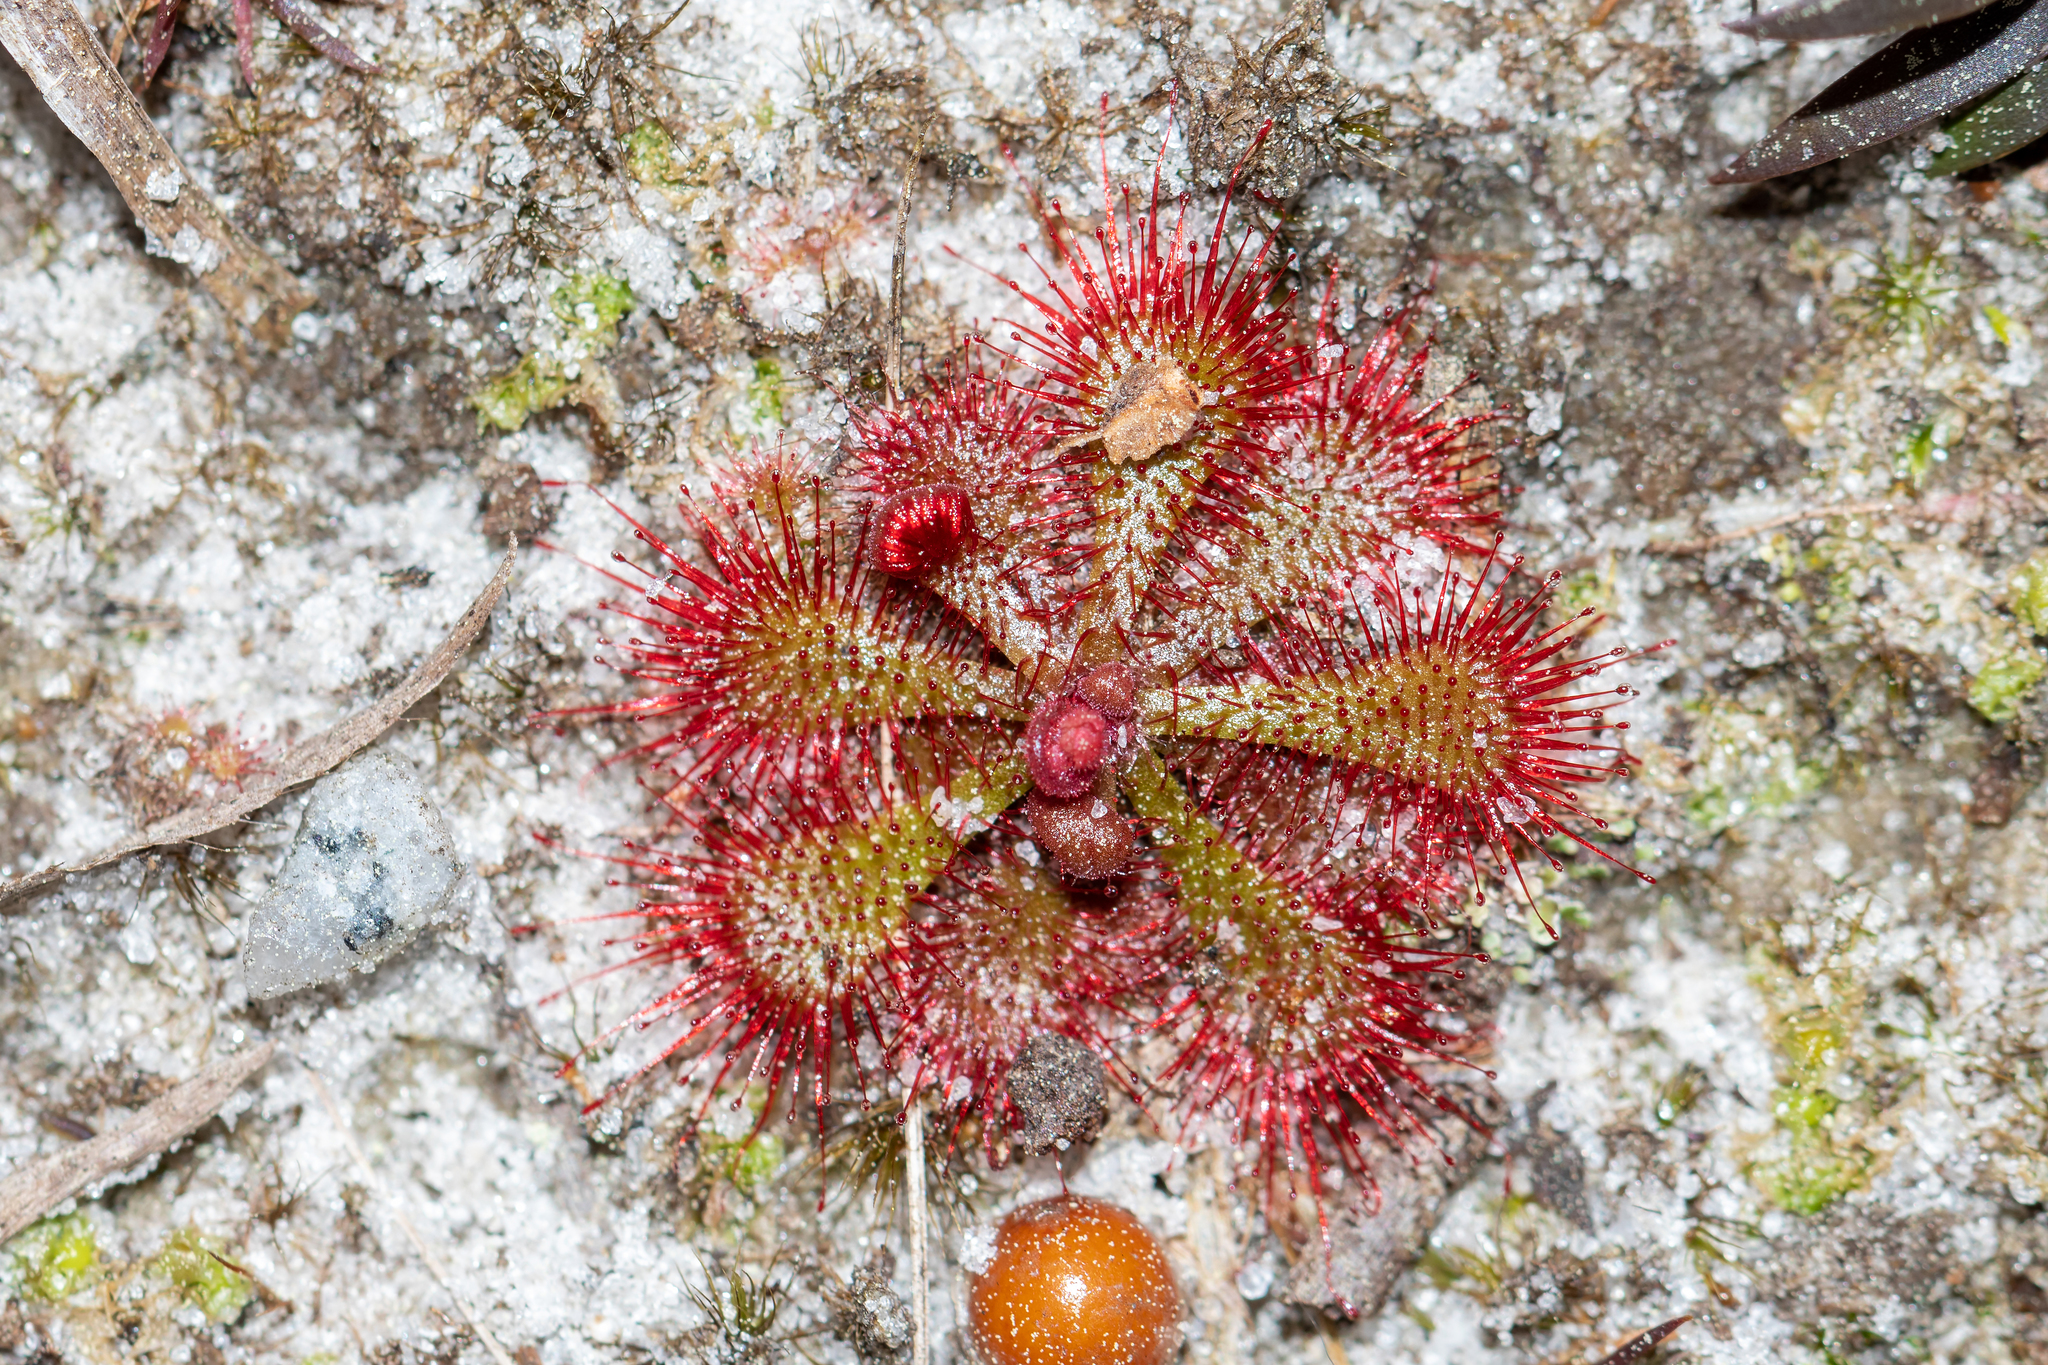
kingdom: Plantae
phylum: Tracheophyta
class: Magnoliopsida
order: Caryophyllales
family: Droseraceae
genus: Drosera
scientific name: Drosera brevifolia
